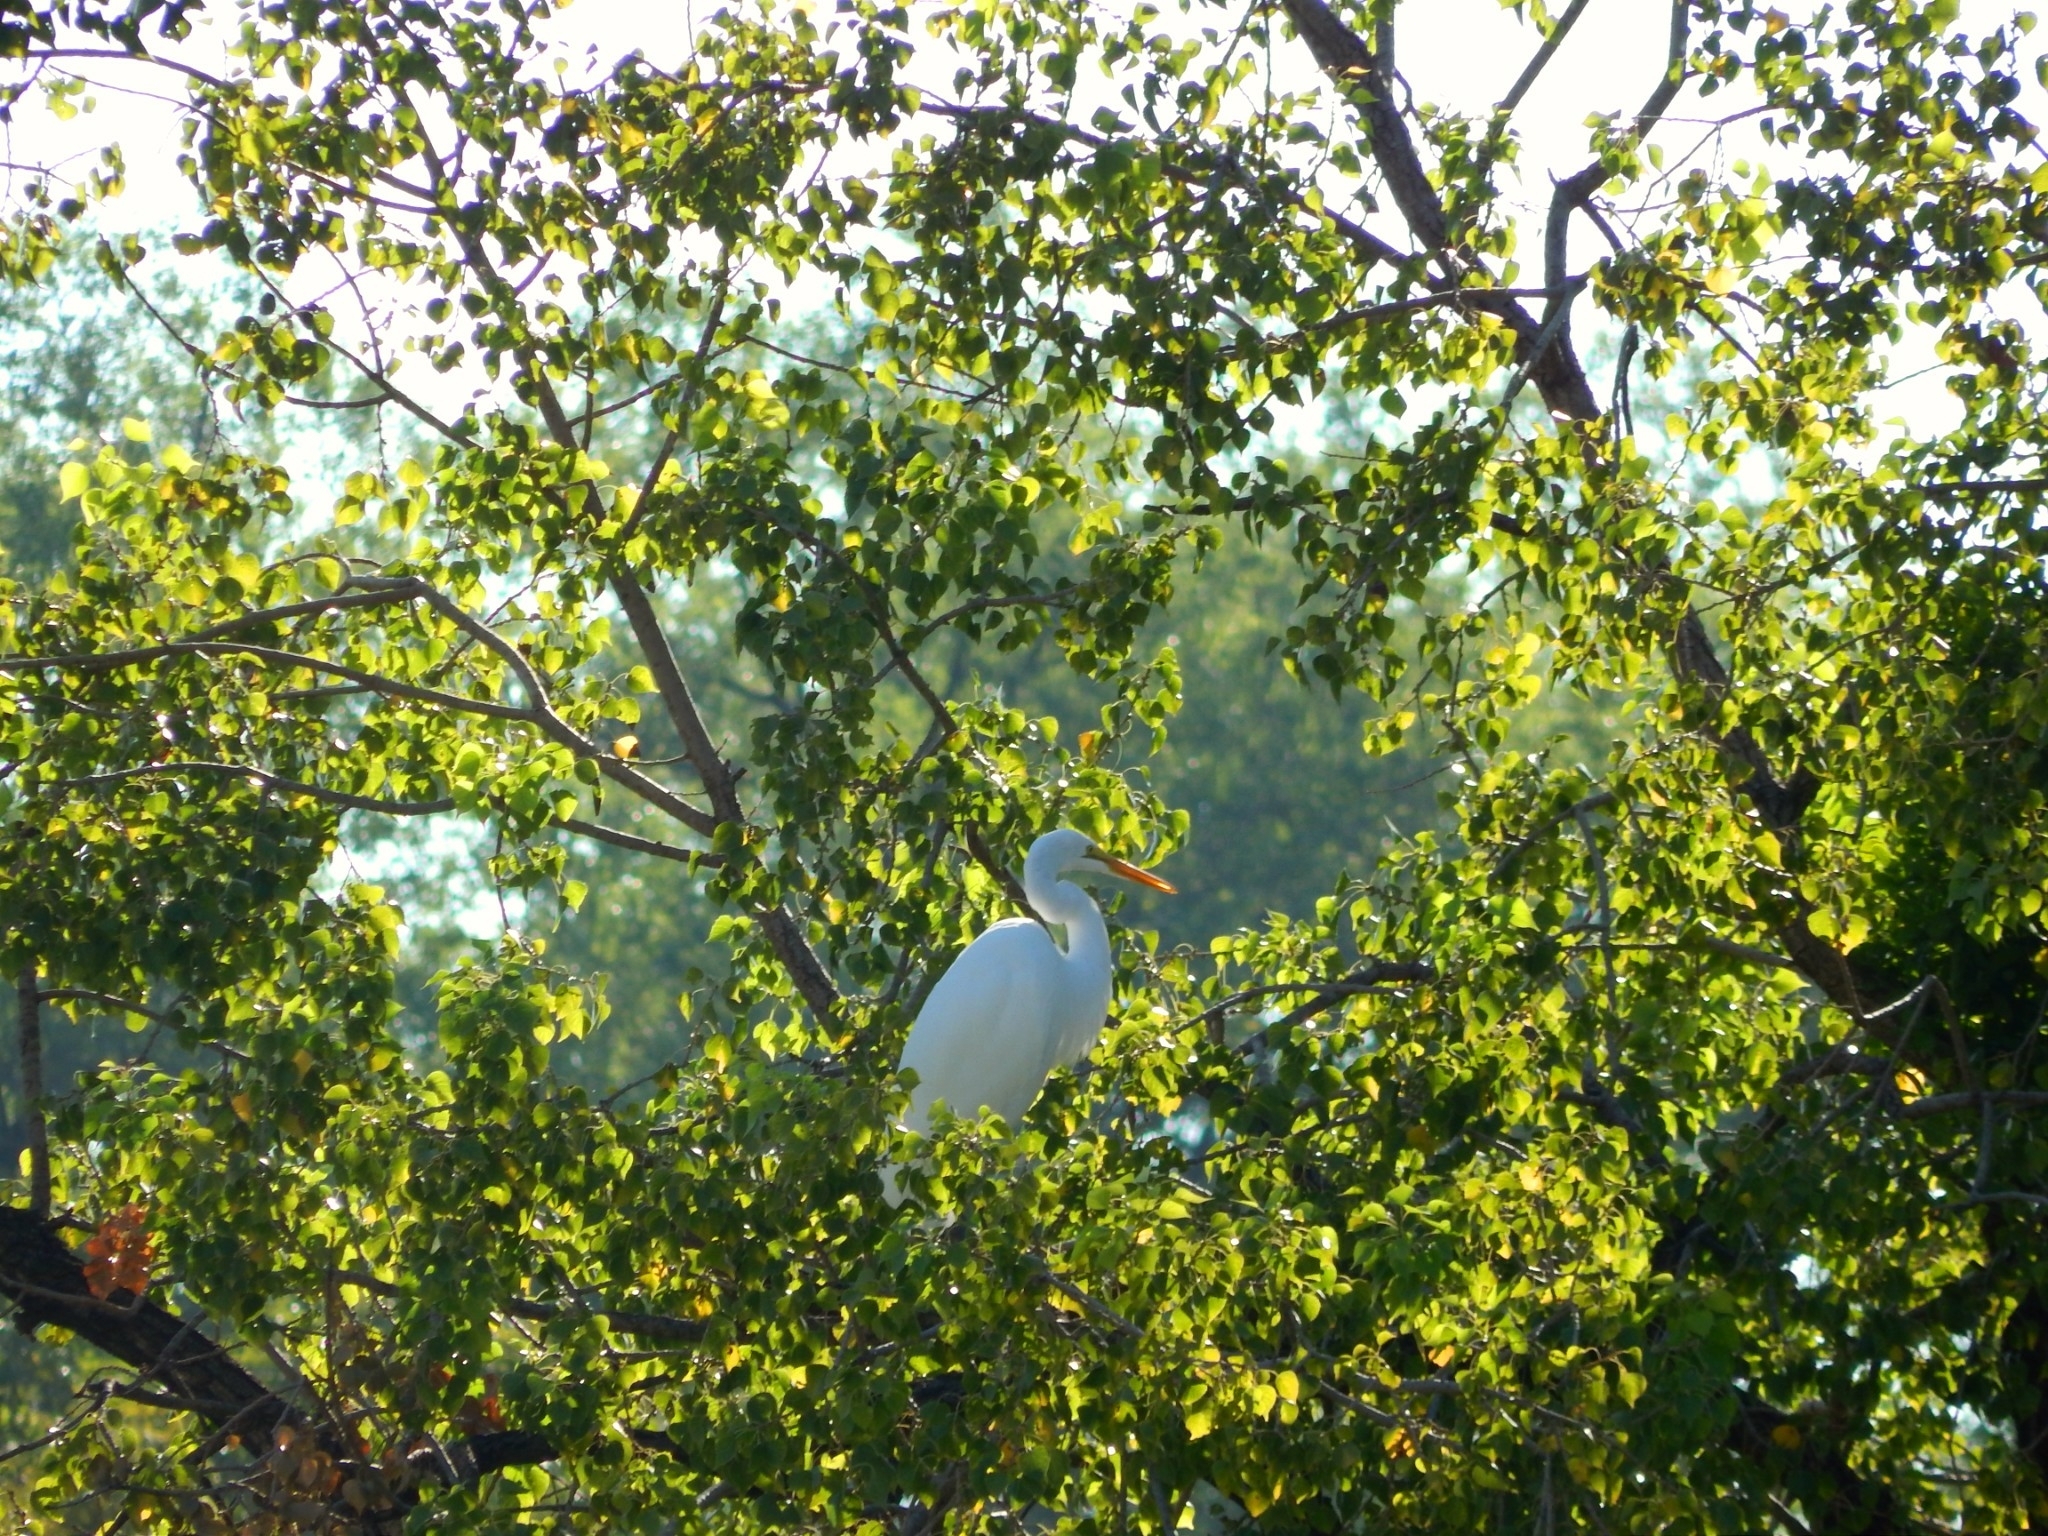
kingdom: Animalia
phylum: Chordata
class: Aves
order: Pelecaniformes
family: Ardeidae
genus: Ardea
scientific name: Ardea alba
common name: Great egret
